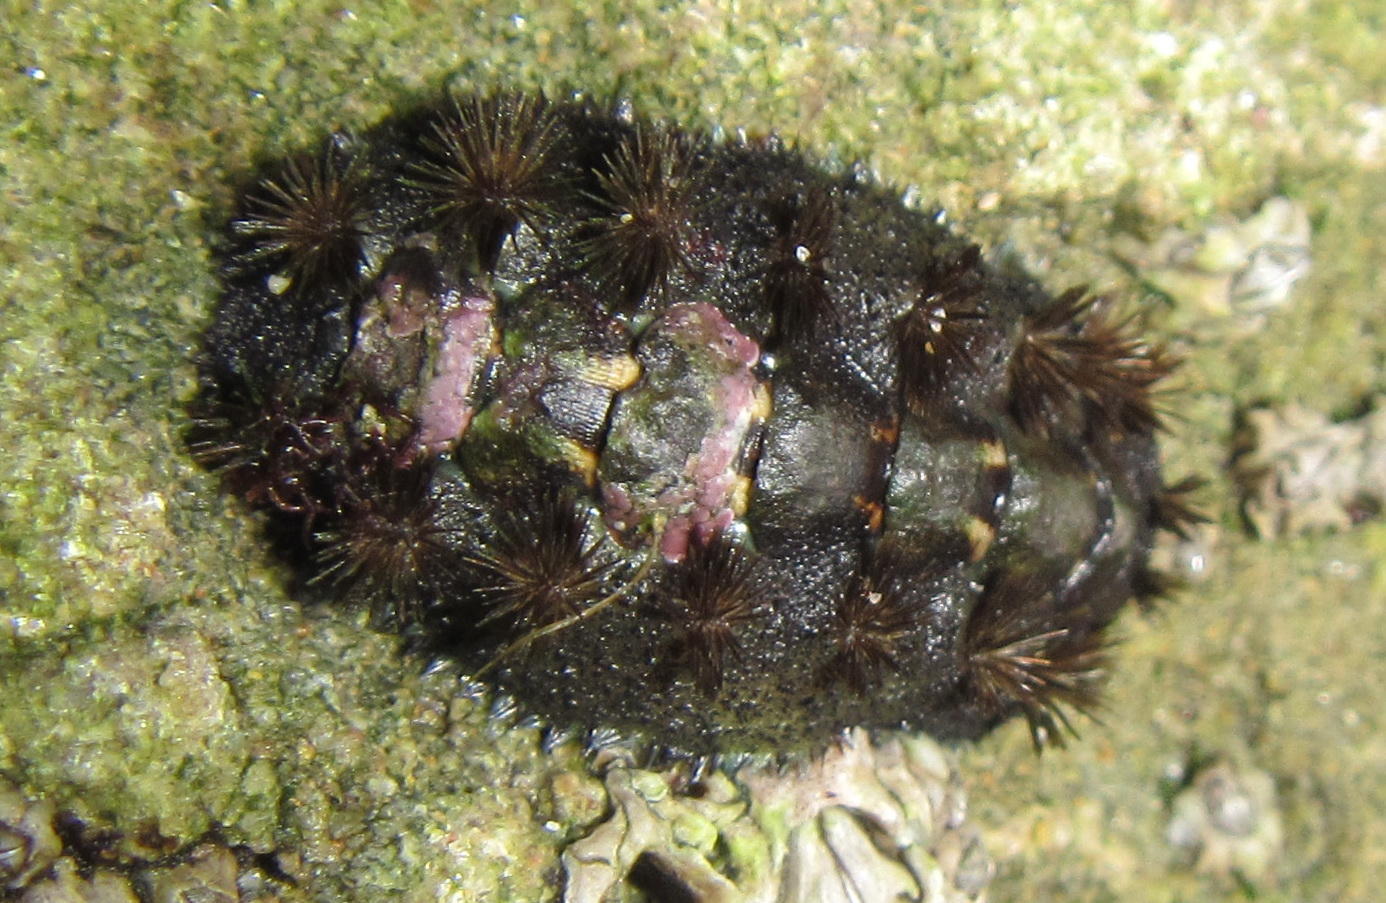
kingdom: Animalia
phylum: Mollusca
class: Polyplacophora
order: Chitonida
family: Acanthochitonidae
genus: Acanthochitona
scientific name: Acanthochitona garnoti
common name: Spiny chiton
